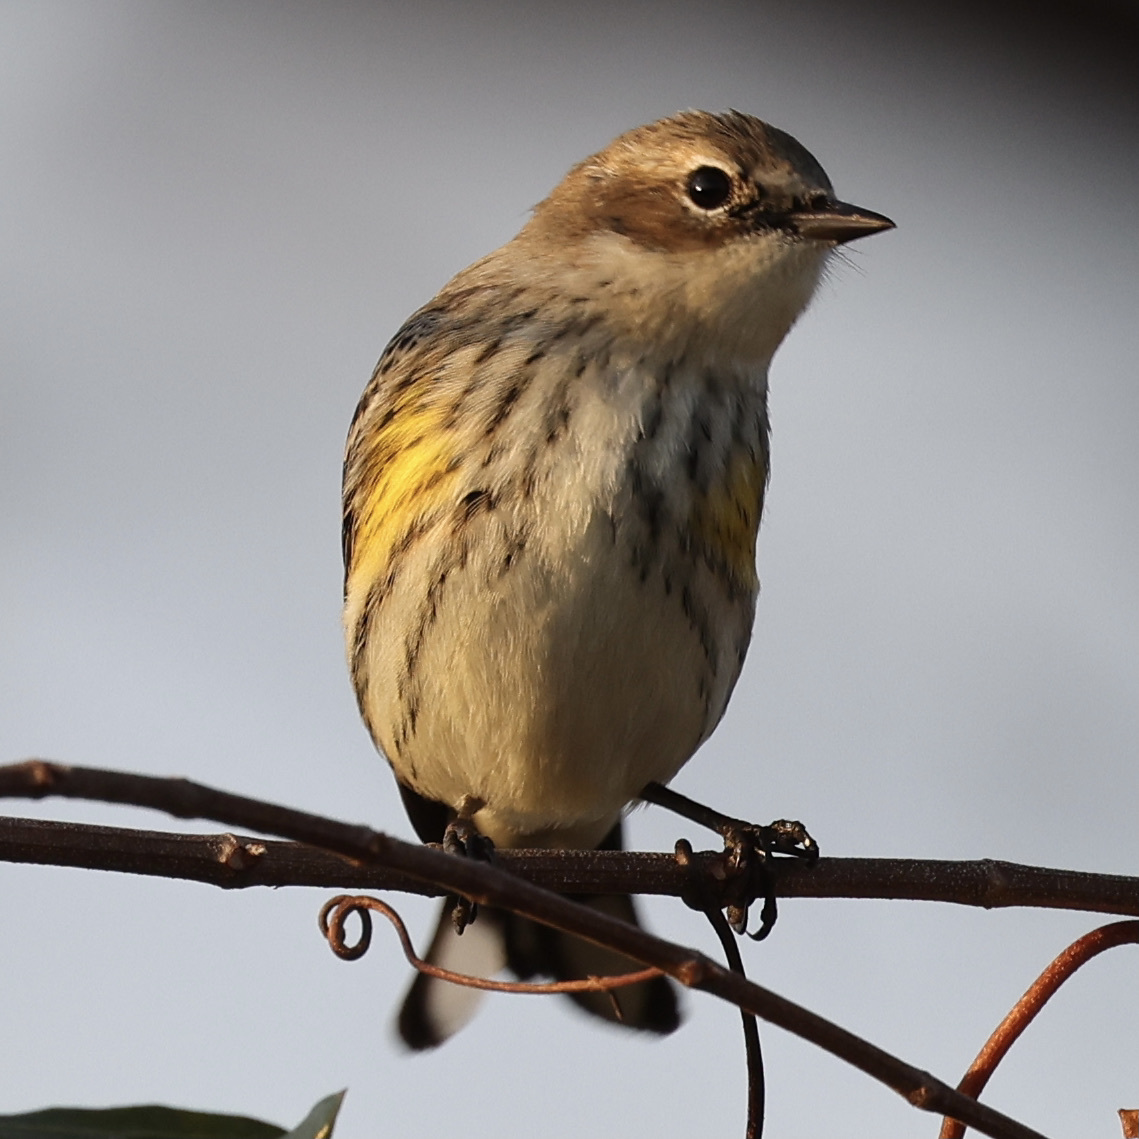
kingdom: Animalia
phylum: Chordata
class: Aves
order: Passeriformes
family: Parulidae
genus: Setophaga
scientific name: Setophaga coronata
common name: Myrtle warbler
